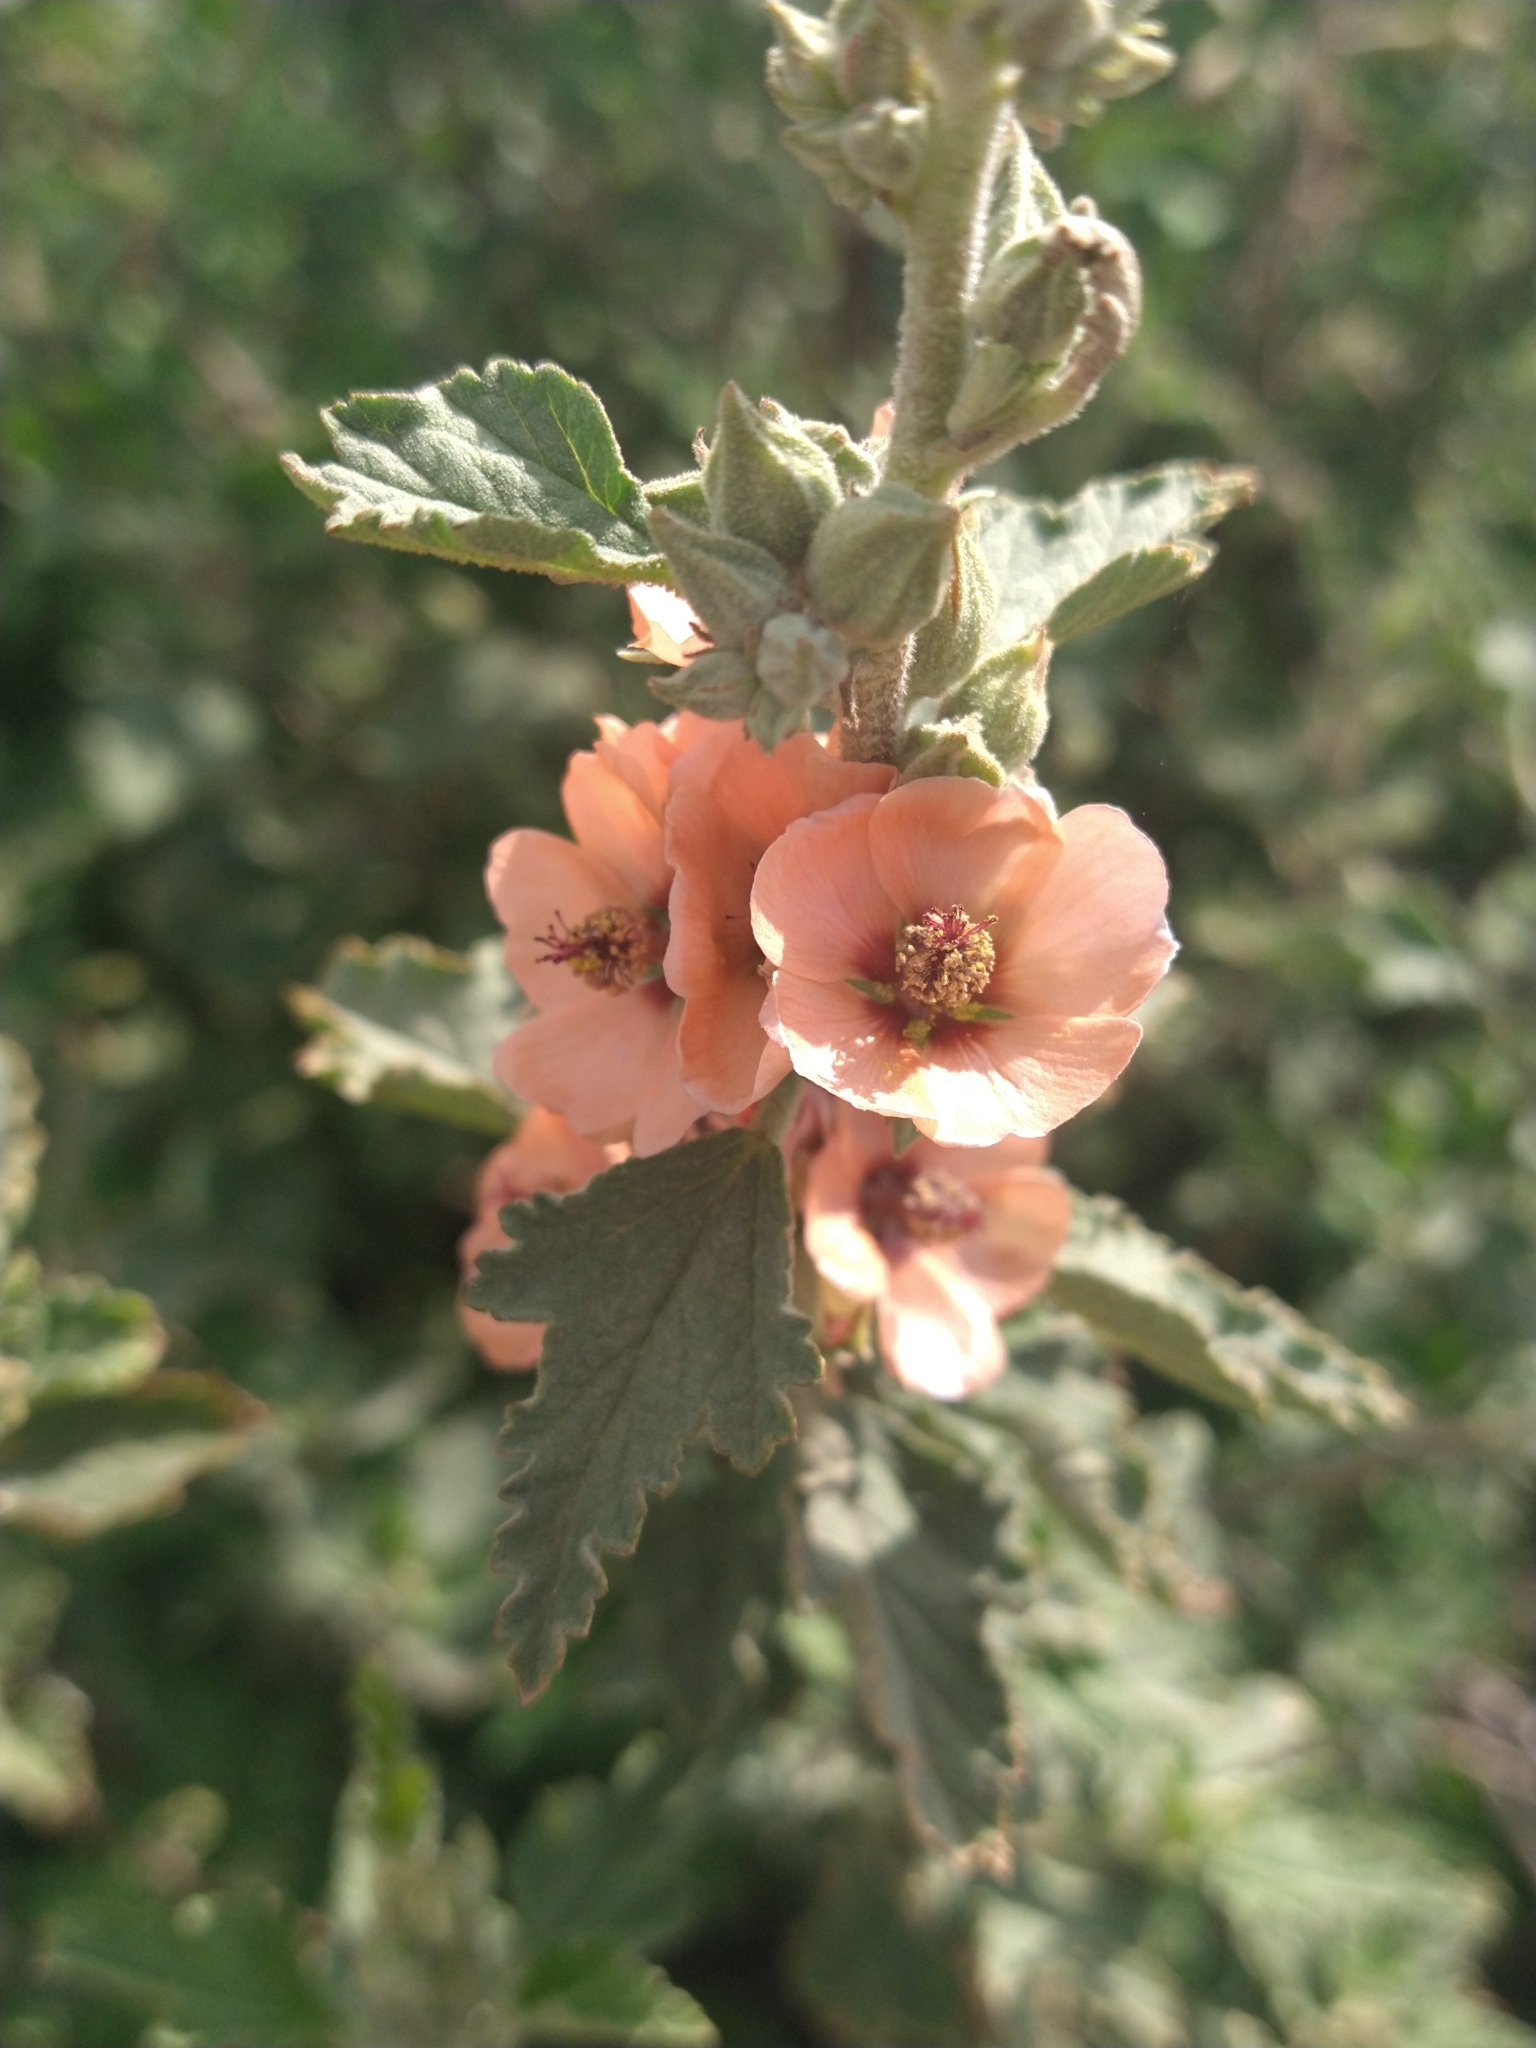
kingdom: Plantae
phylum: Tracheophyta
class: Magnoliopsida
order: Malvales
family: Malvaceae
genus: Sphaeralcea
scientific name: Sphaeralcea bonariensis
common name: Latin globemallow
